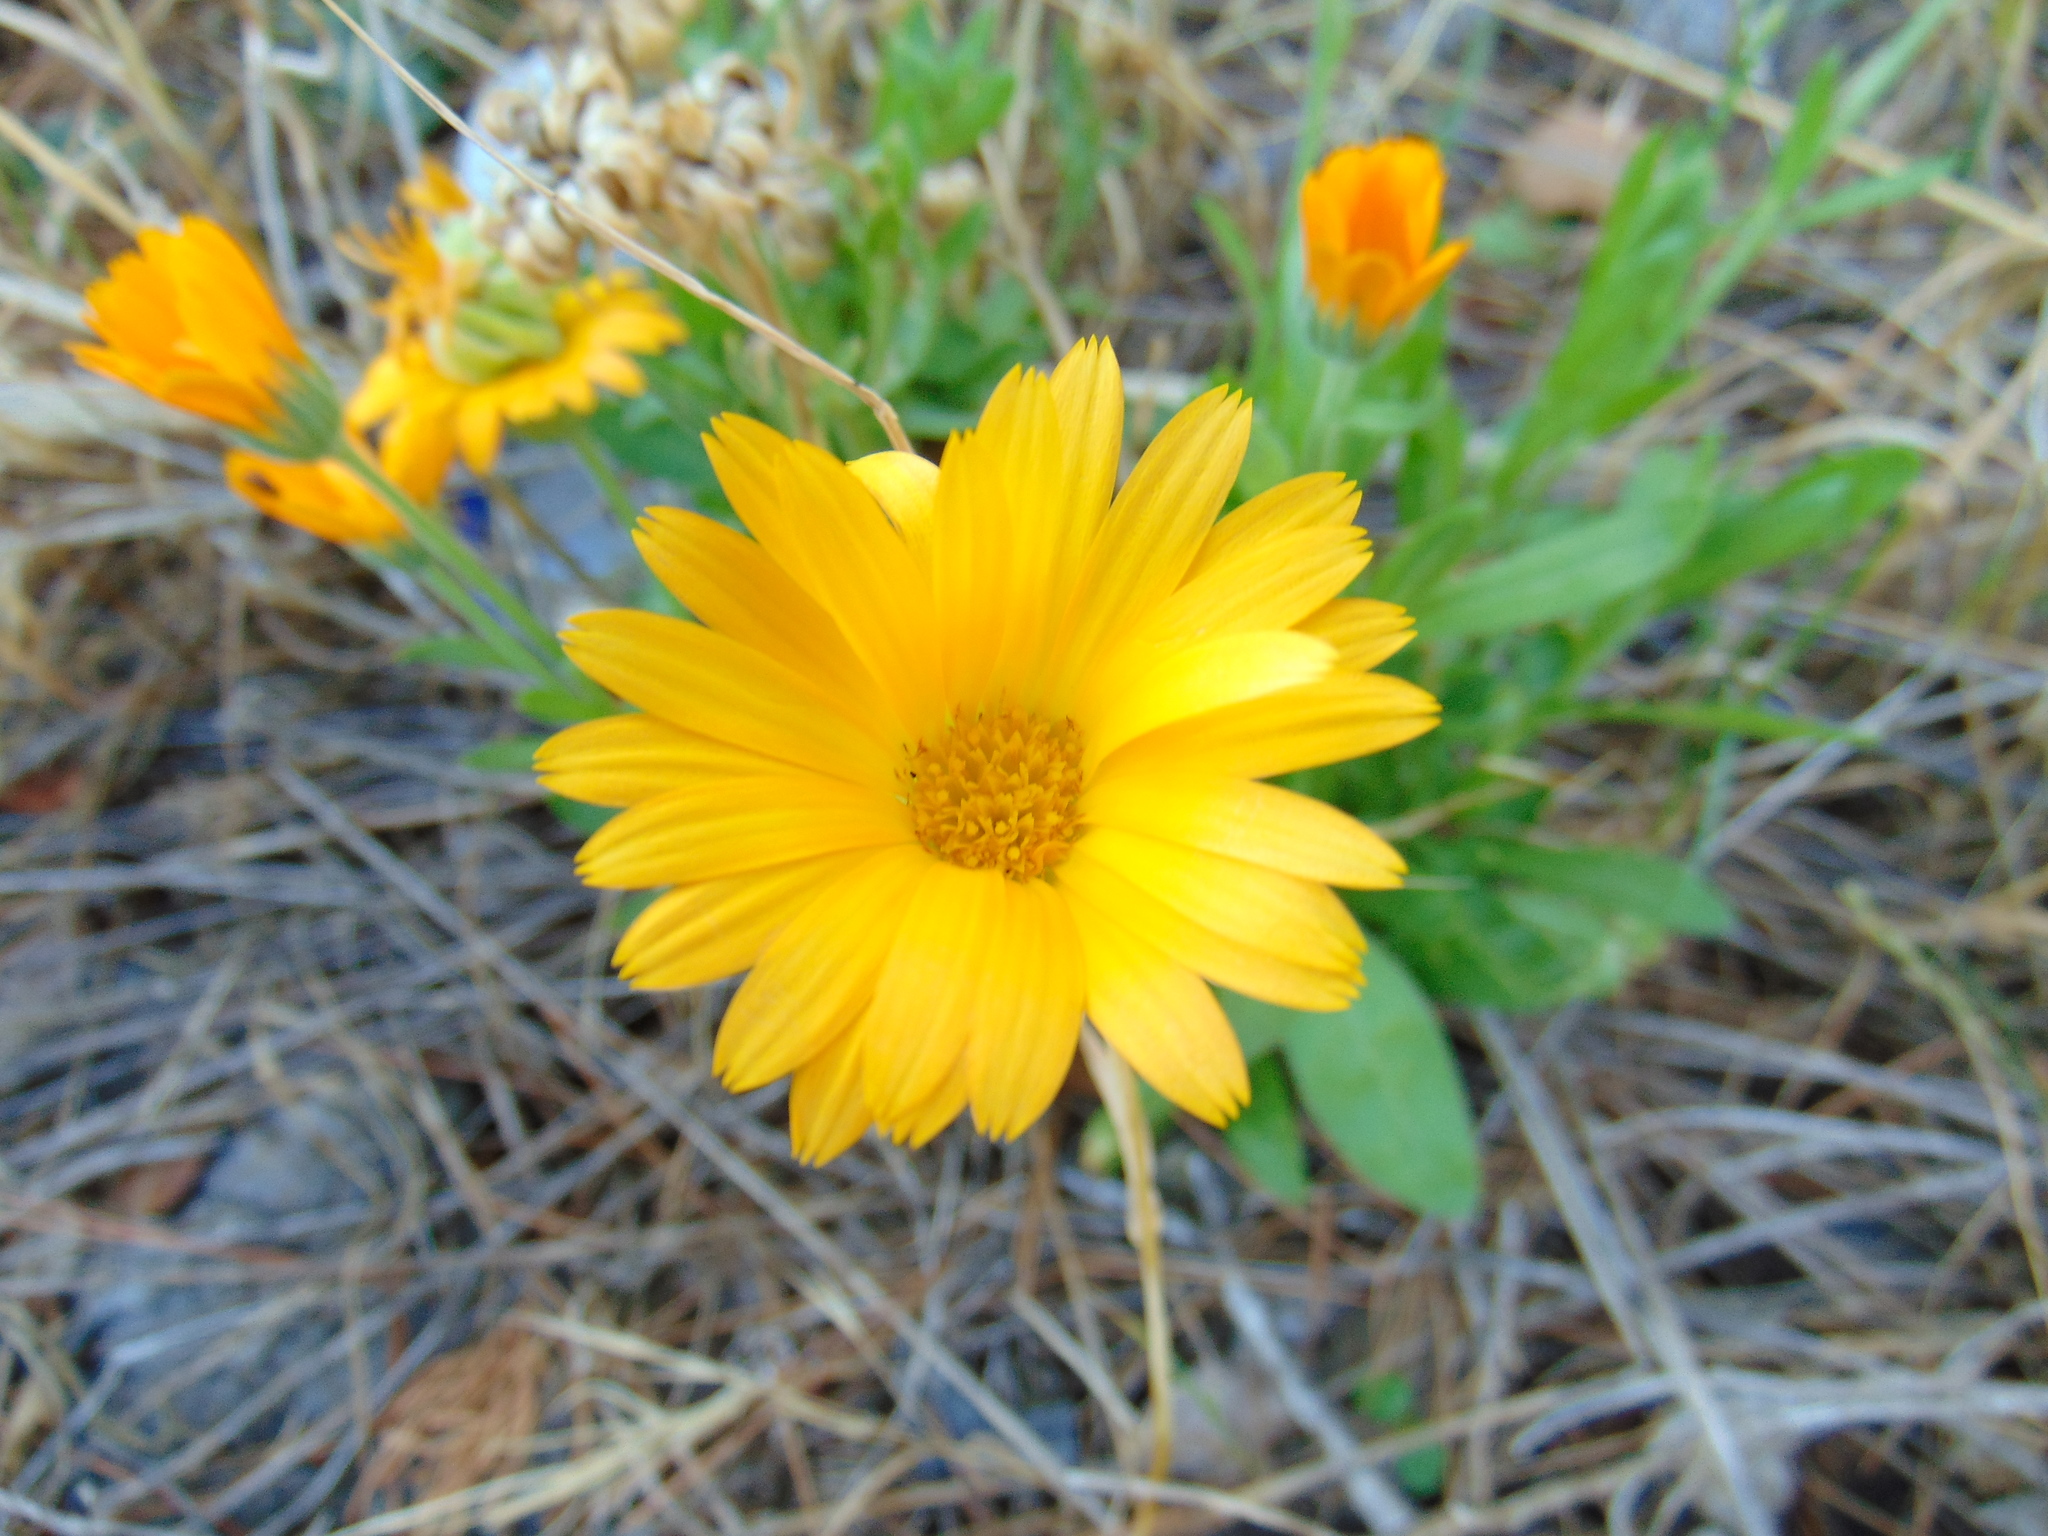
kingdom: Plantae
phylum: Tracheophyta
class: Magnoliopsida
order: Asterales
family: Asteraceae
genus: Calendula
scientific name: Calendula officinalis
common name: Pot marigold
